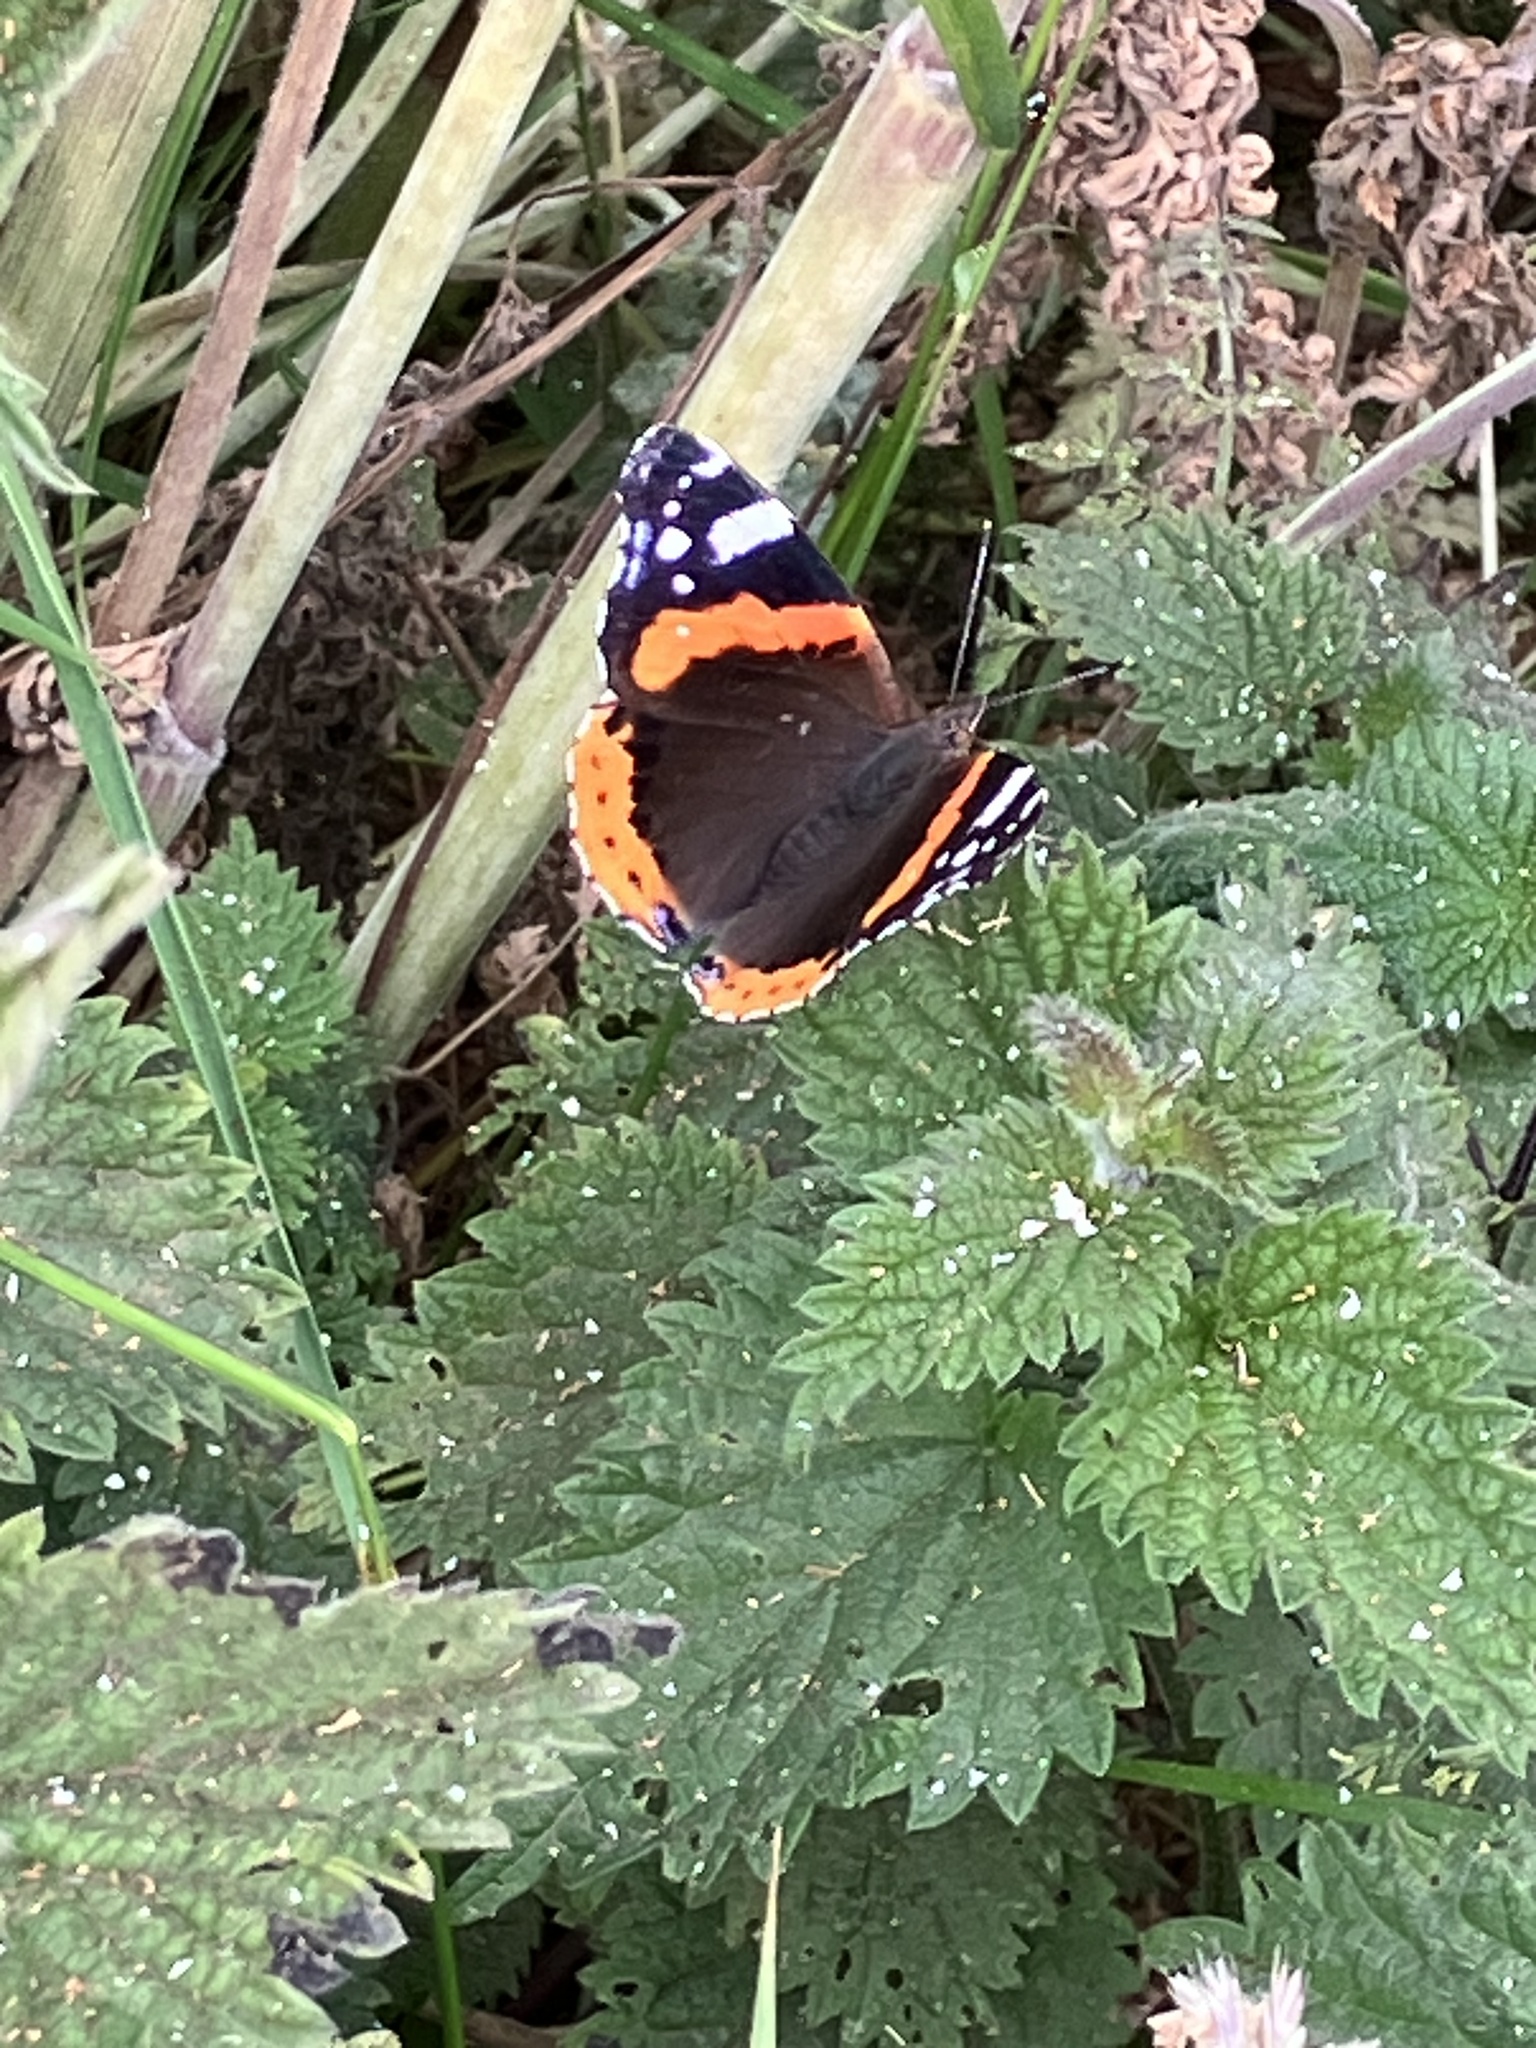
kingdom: Animalia
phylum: Arthropoda
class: Insecta
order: Lepidoptera
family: Nymphalidae
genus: Vanessa
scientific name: Vanessa atalanta
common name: Red admiral
